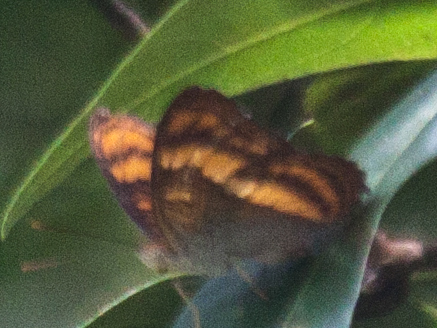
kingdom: Animalia
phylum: Arthropoda
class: Insecta
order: Lepidoptera
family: Nymphalidae
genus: Pandita
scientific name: Pandita sinope
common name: Colonel
